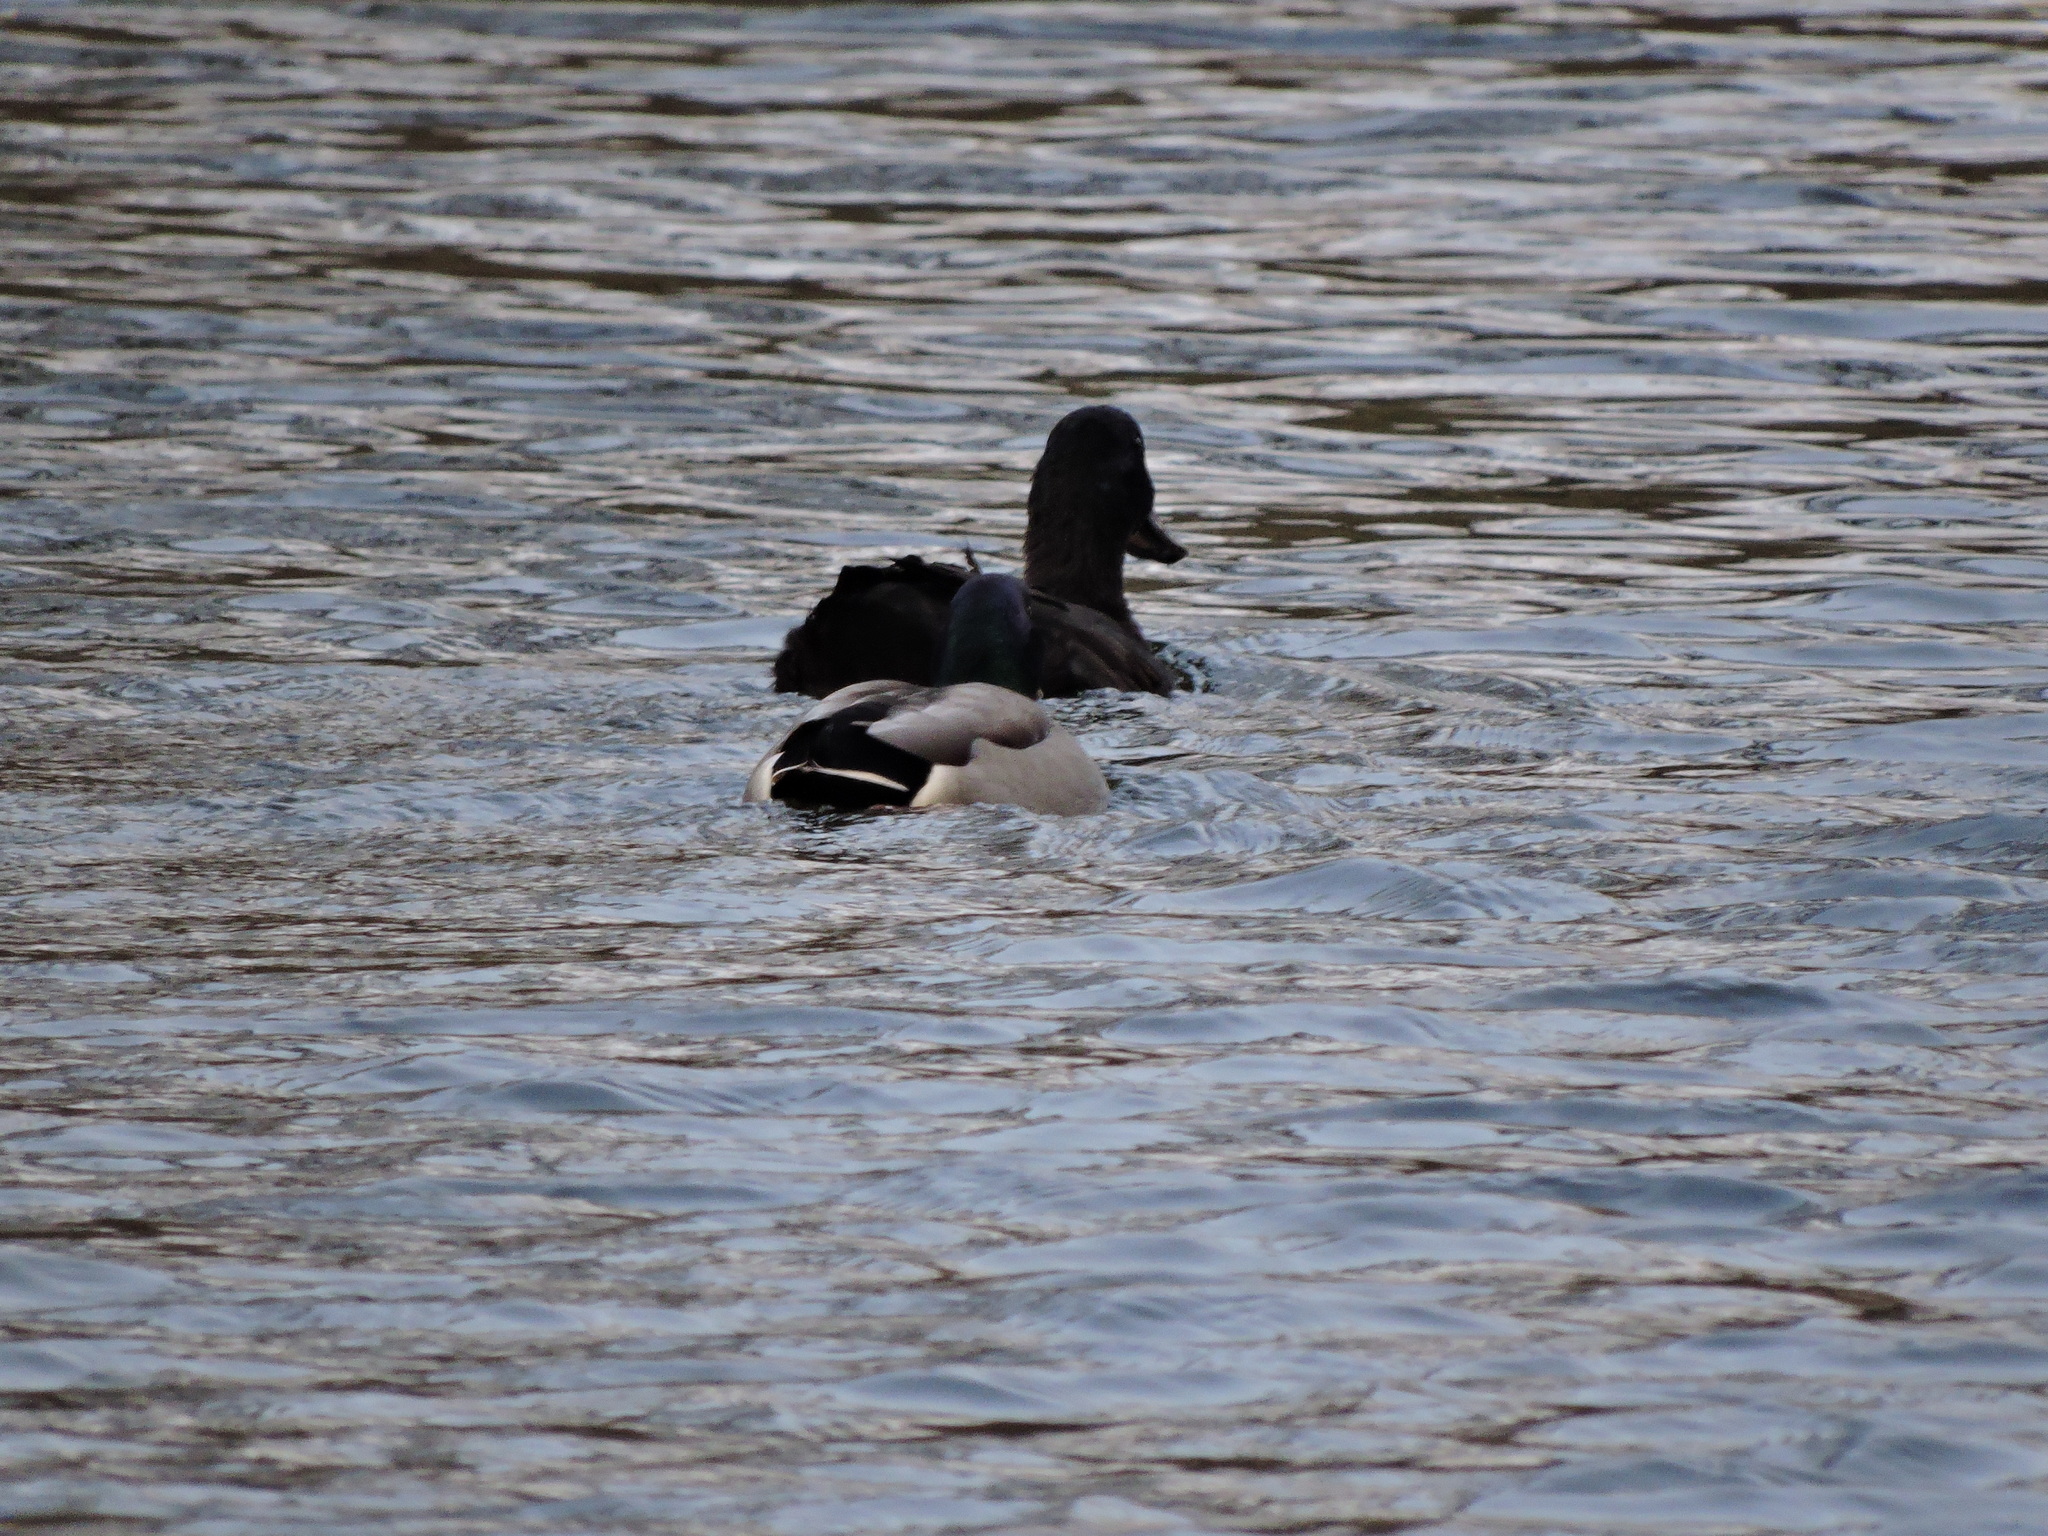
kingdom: Animalia
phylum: Chordata
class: Aves
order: Anseriformes
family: Anatidae
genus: Anas
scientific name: Anas platyrhynchos
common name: Mallard
